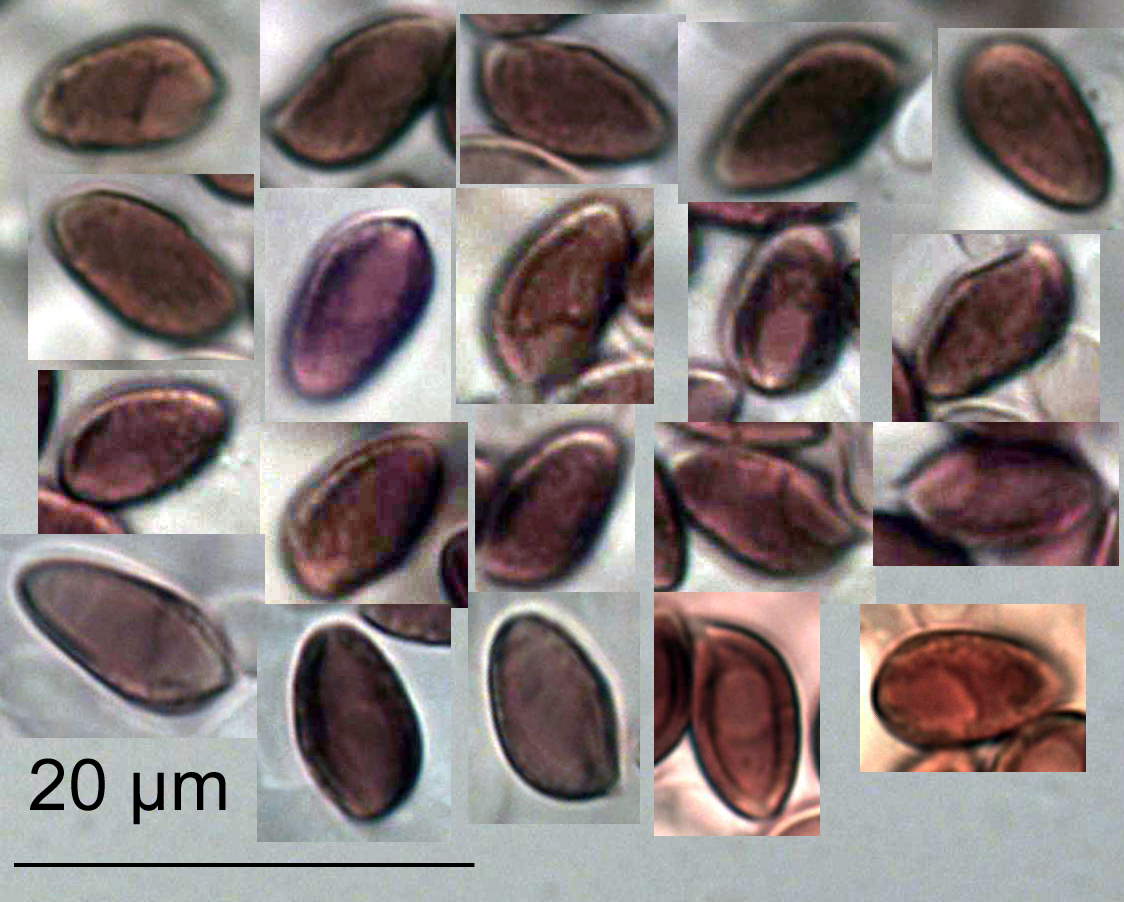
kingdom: Fungi
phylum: Basidiomycota
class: Agaricomycetes
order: Agaricales
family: Hymenogastraceae
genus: Galerina
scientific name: Galerina patagonica
